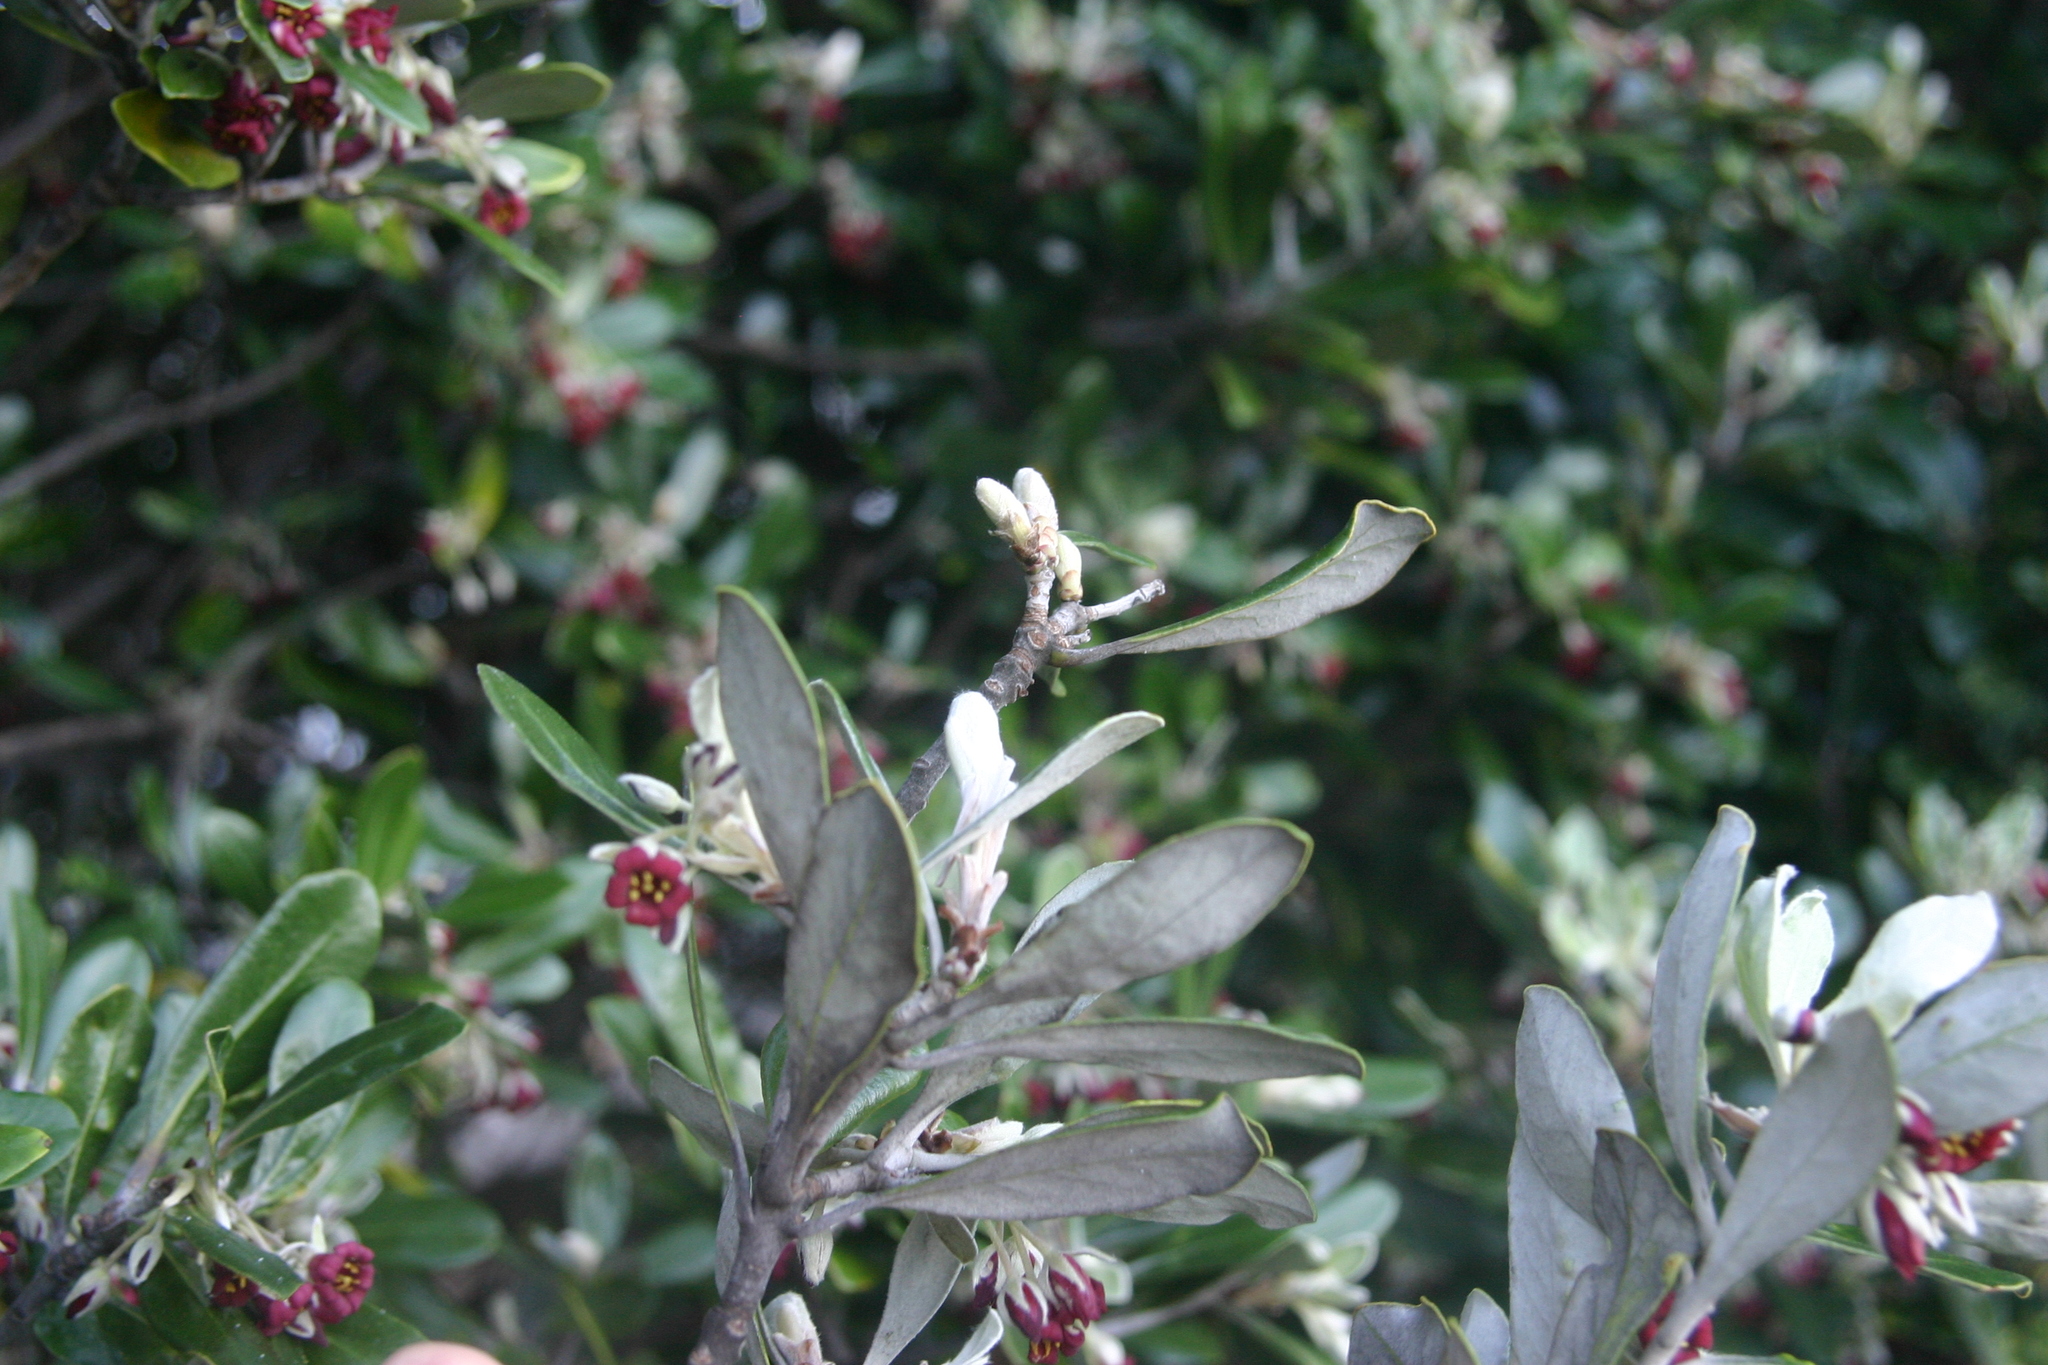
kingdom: Plantae
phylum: Tracheophyta
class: Magnoliopsida
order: Apiales
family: Pittosporaceae
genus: Pittosporum
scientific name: Pittosporum crassifolium
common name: Karo
